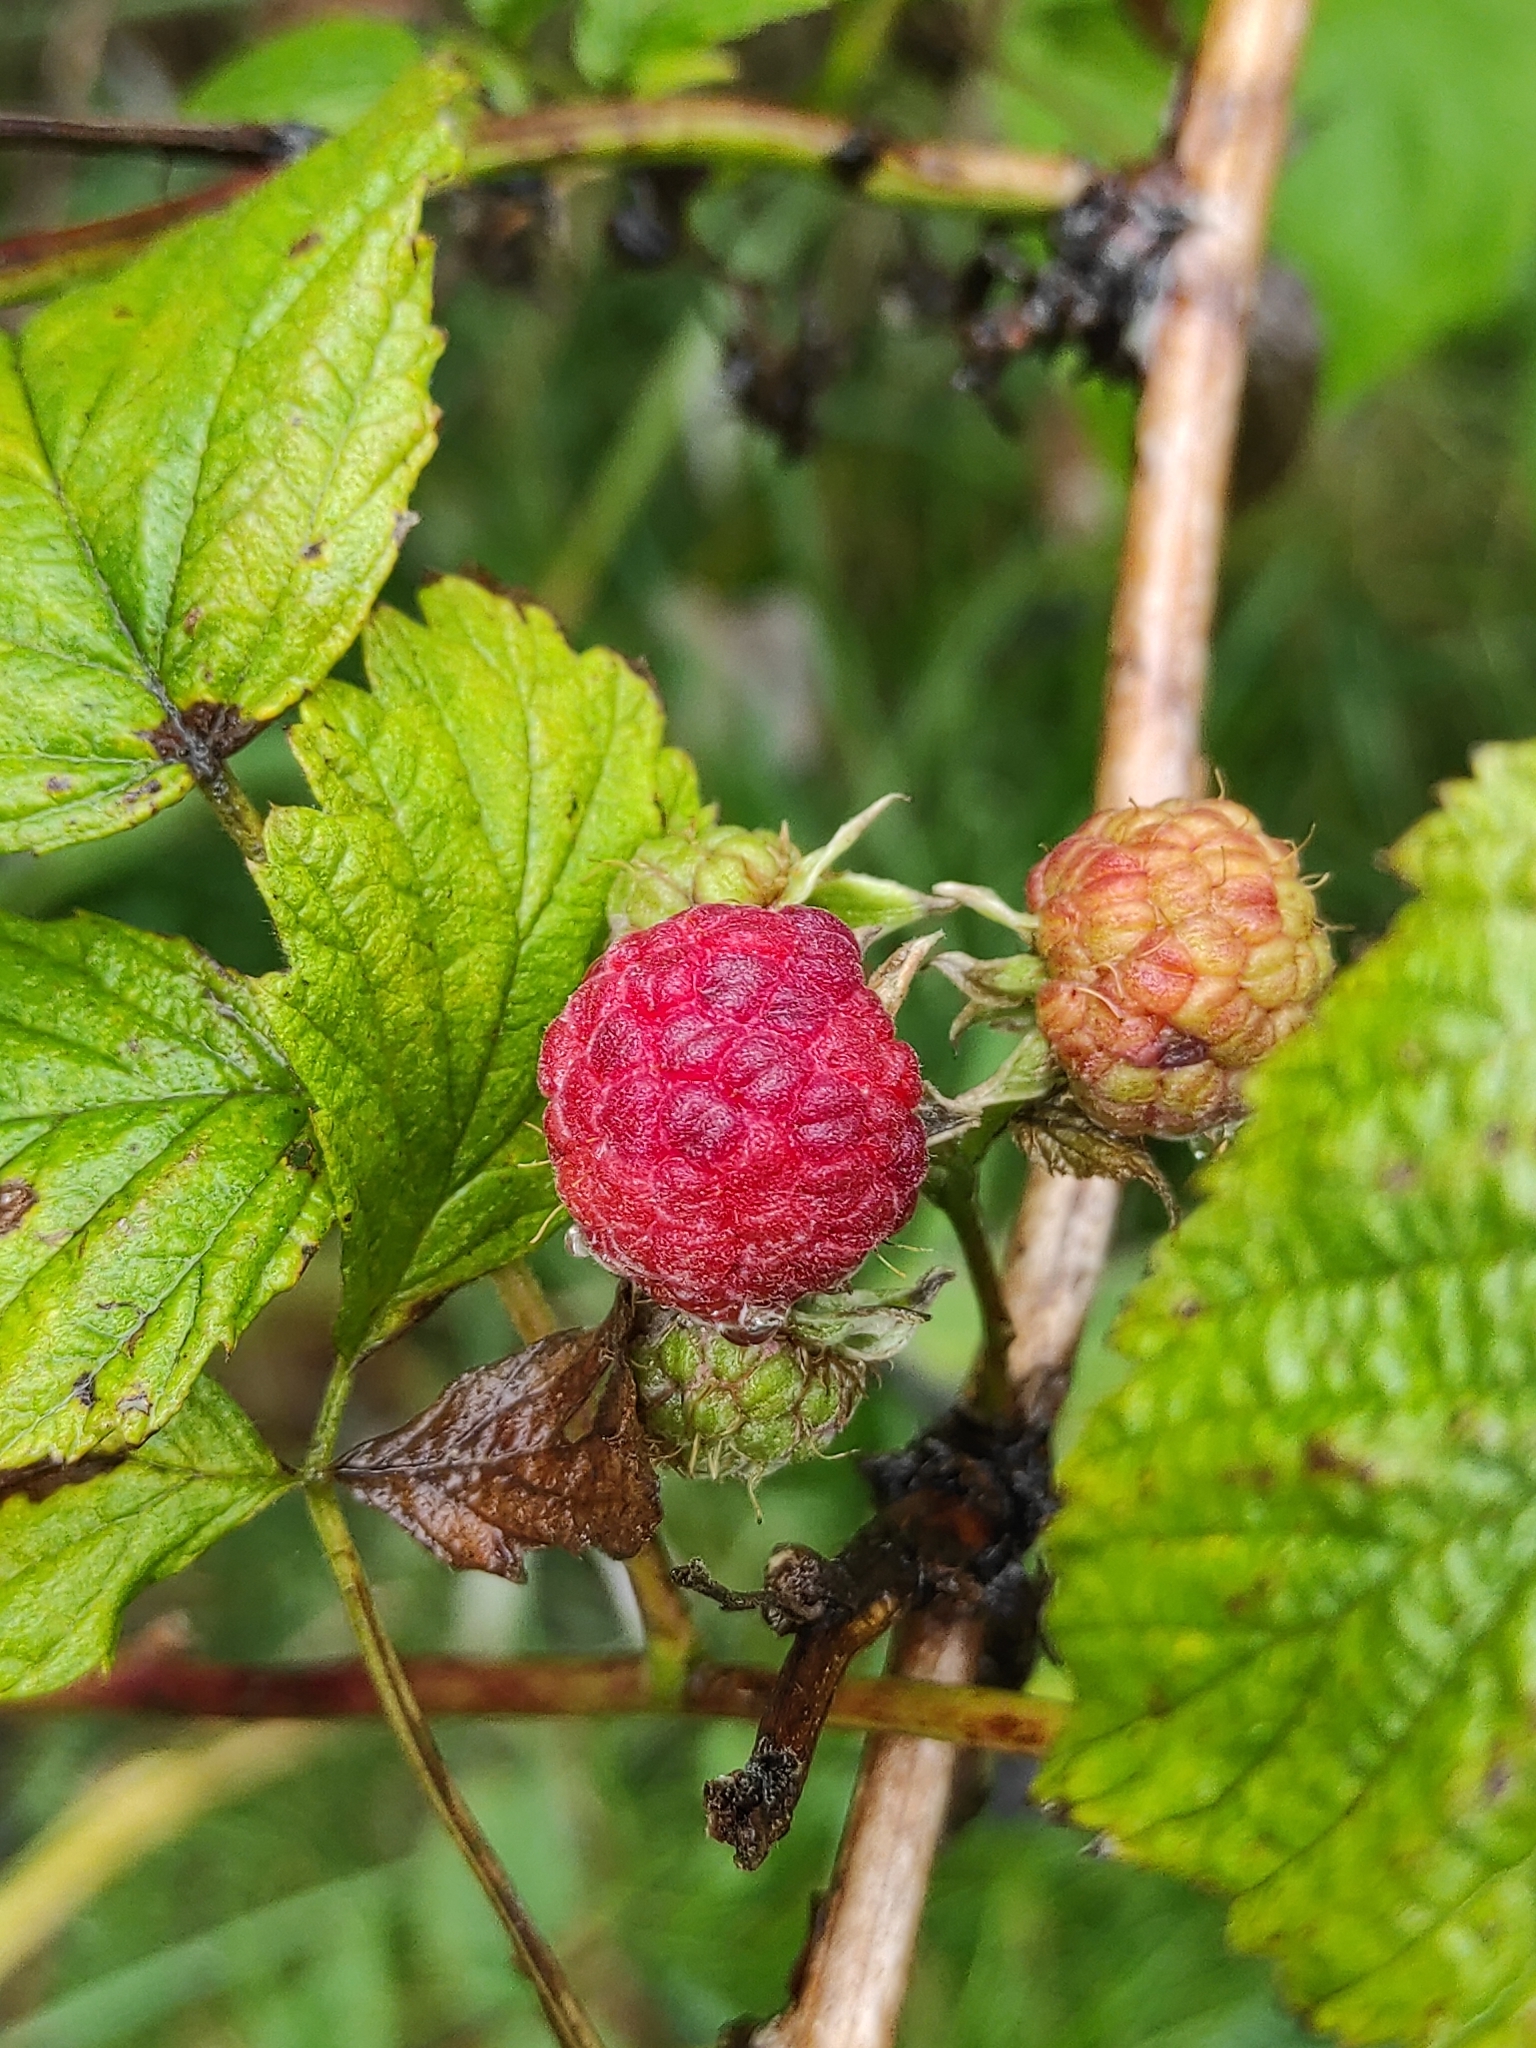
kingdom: Plantae
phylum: Tracheophyta
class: Magnoliopsida
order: Rosales
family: Rosaceae
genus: Rubus
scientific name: Rubus idaeus
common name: Raspberry
